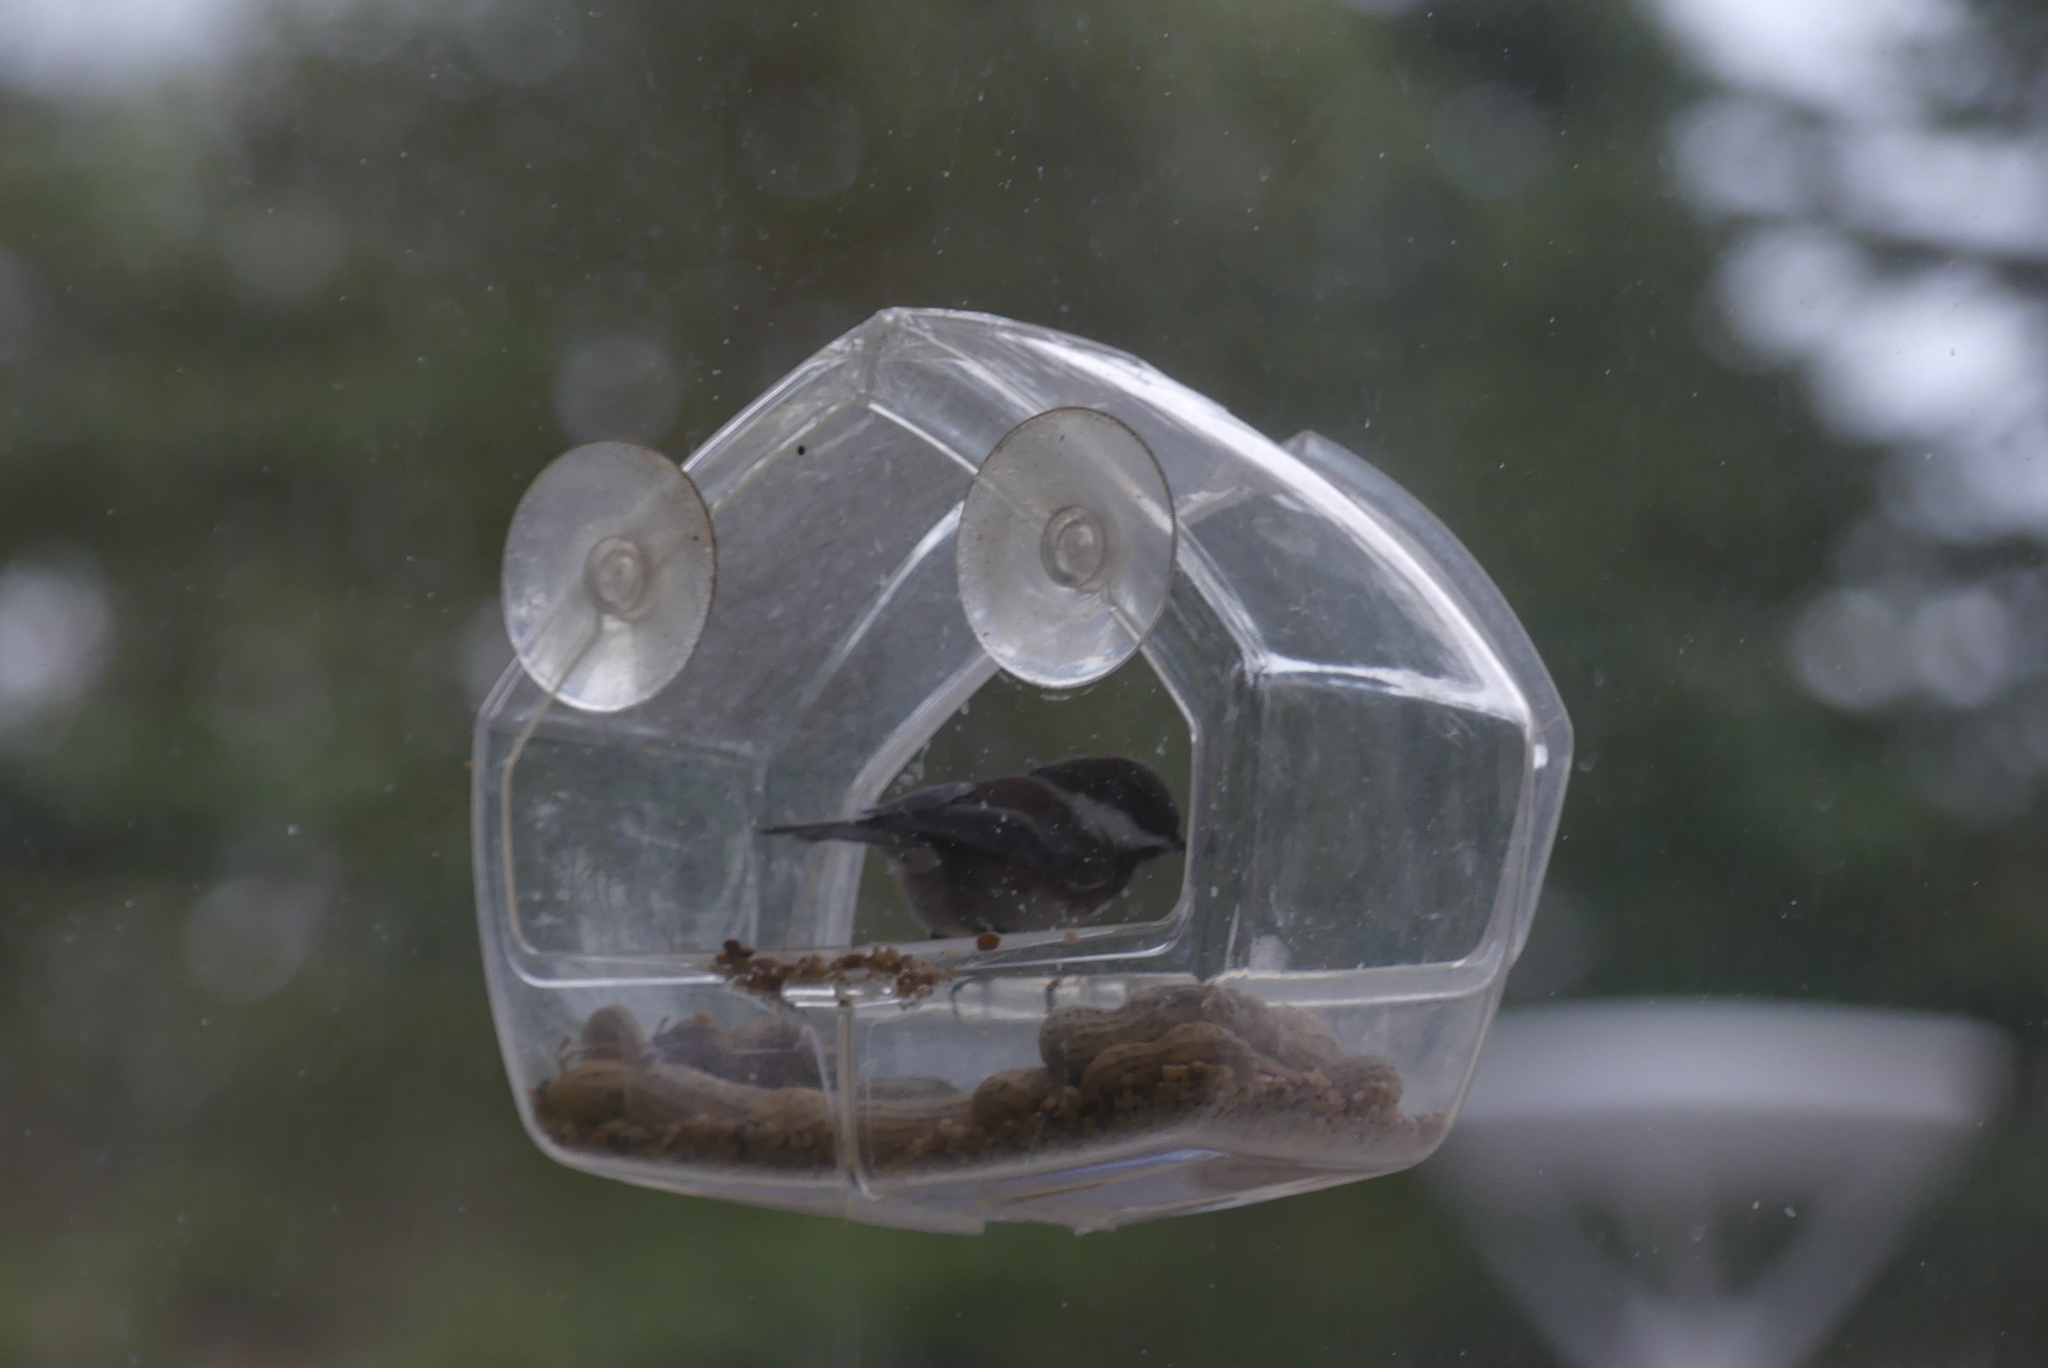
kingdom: Animalia
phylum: Chordata
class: Aves
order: Passeriformes
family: Paridae
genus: Poecile
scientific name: Poecile rufescens
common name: Chestnut-backed chickadee
